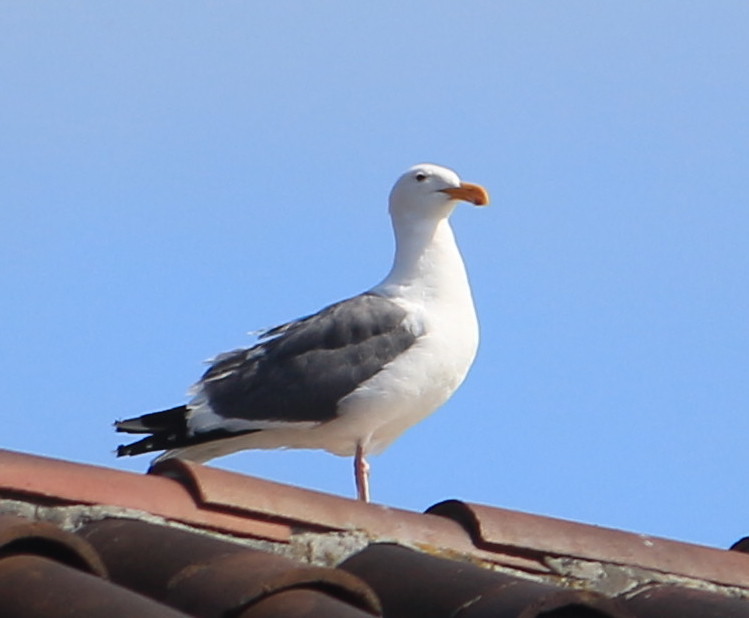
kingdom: Animalia
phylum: Chordata
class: Aves
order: Charadriiformes
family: Laridae
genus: Larus
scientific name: Larus occidentalis
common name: Western gull
